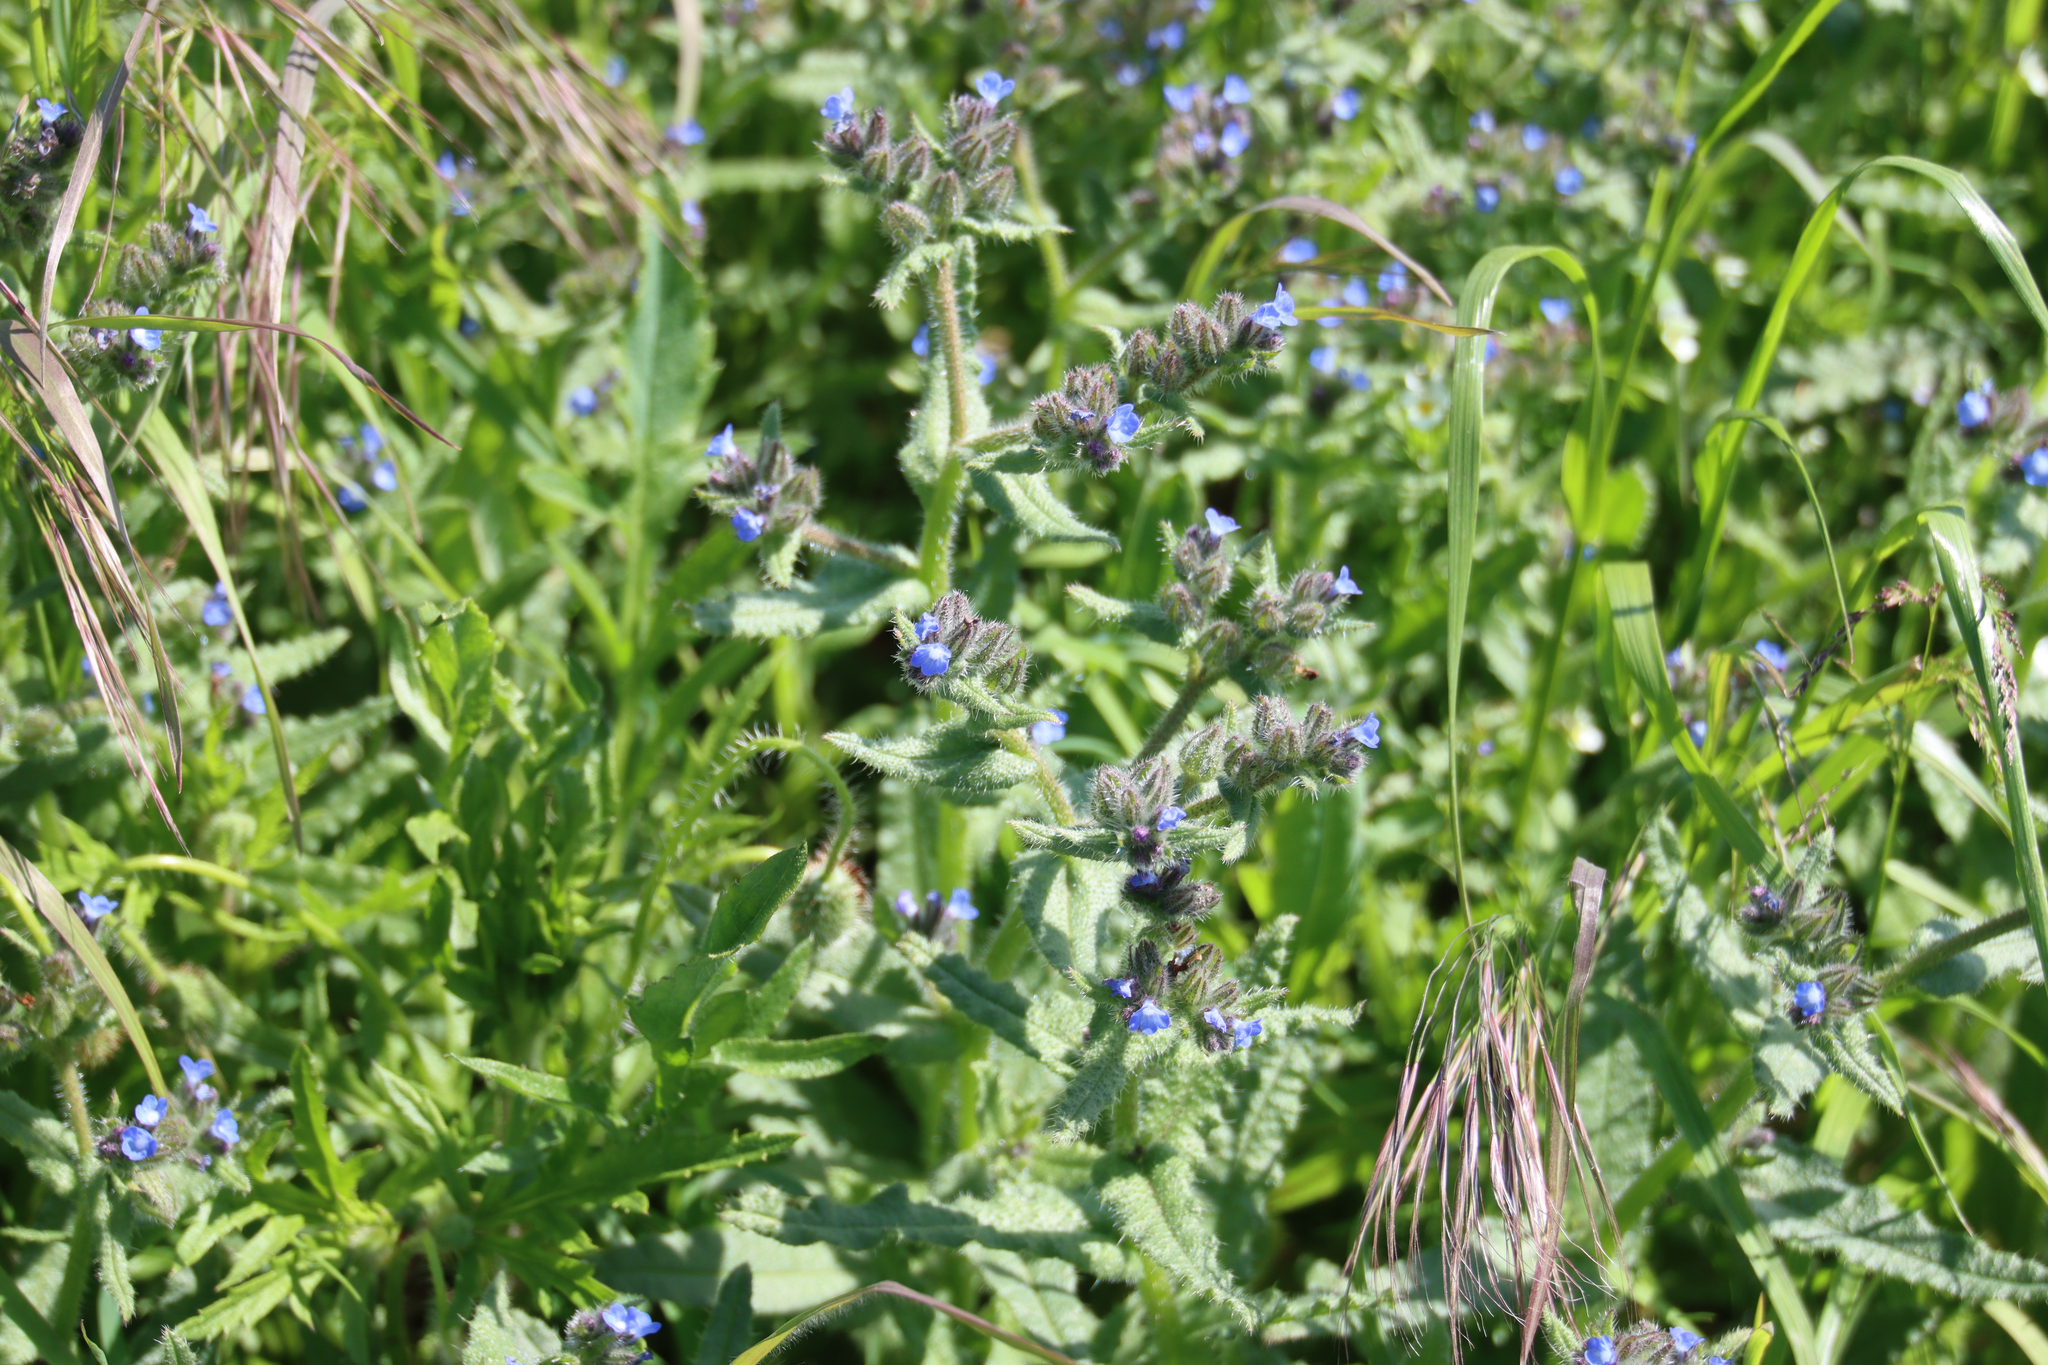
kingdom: Plantae
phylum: Tracheophyta
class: Magnoliopsida
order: Boraginales
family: Boraginaceae
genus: Lycopsis
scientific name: Lycopsis arvensis
